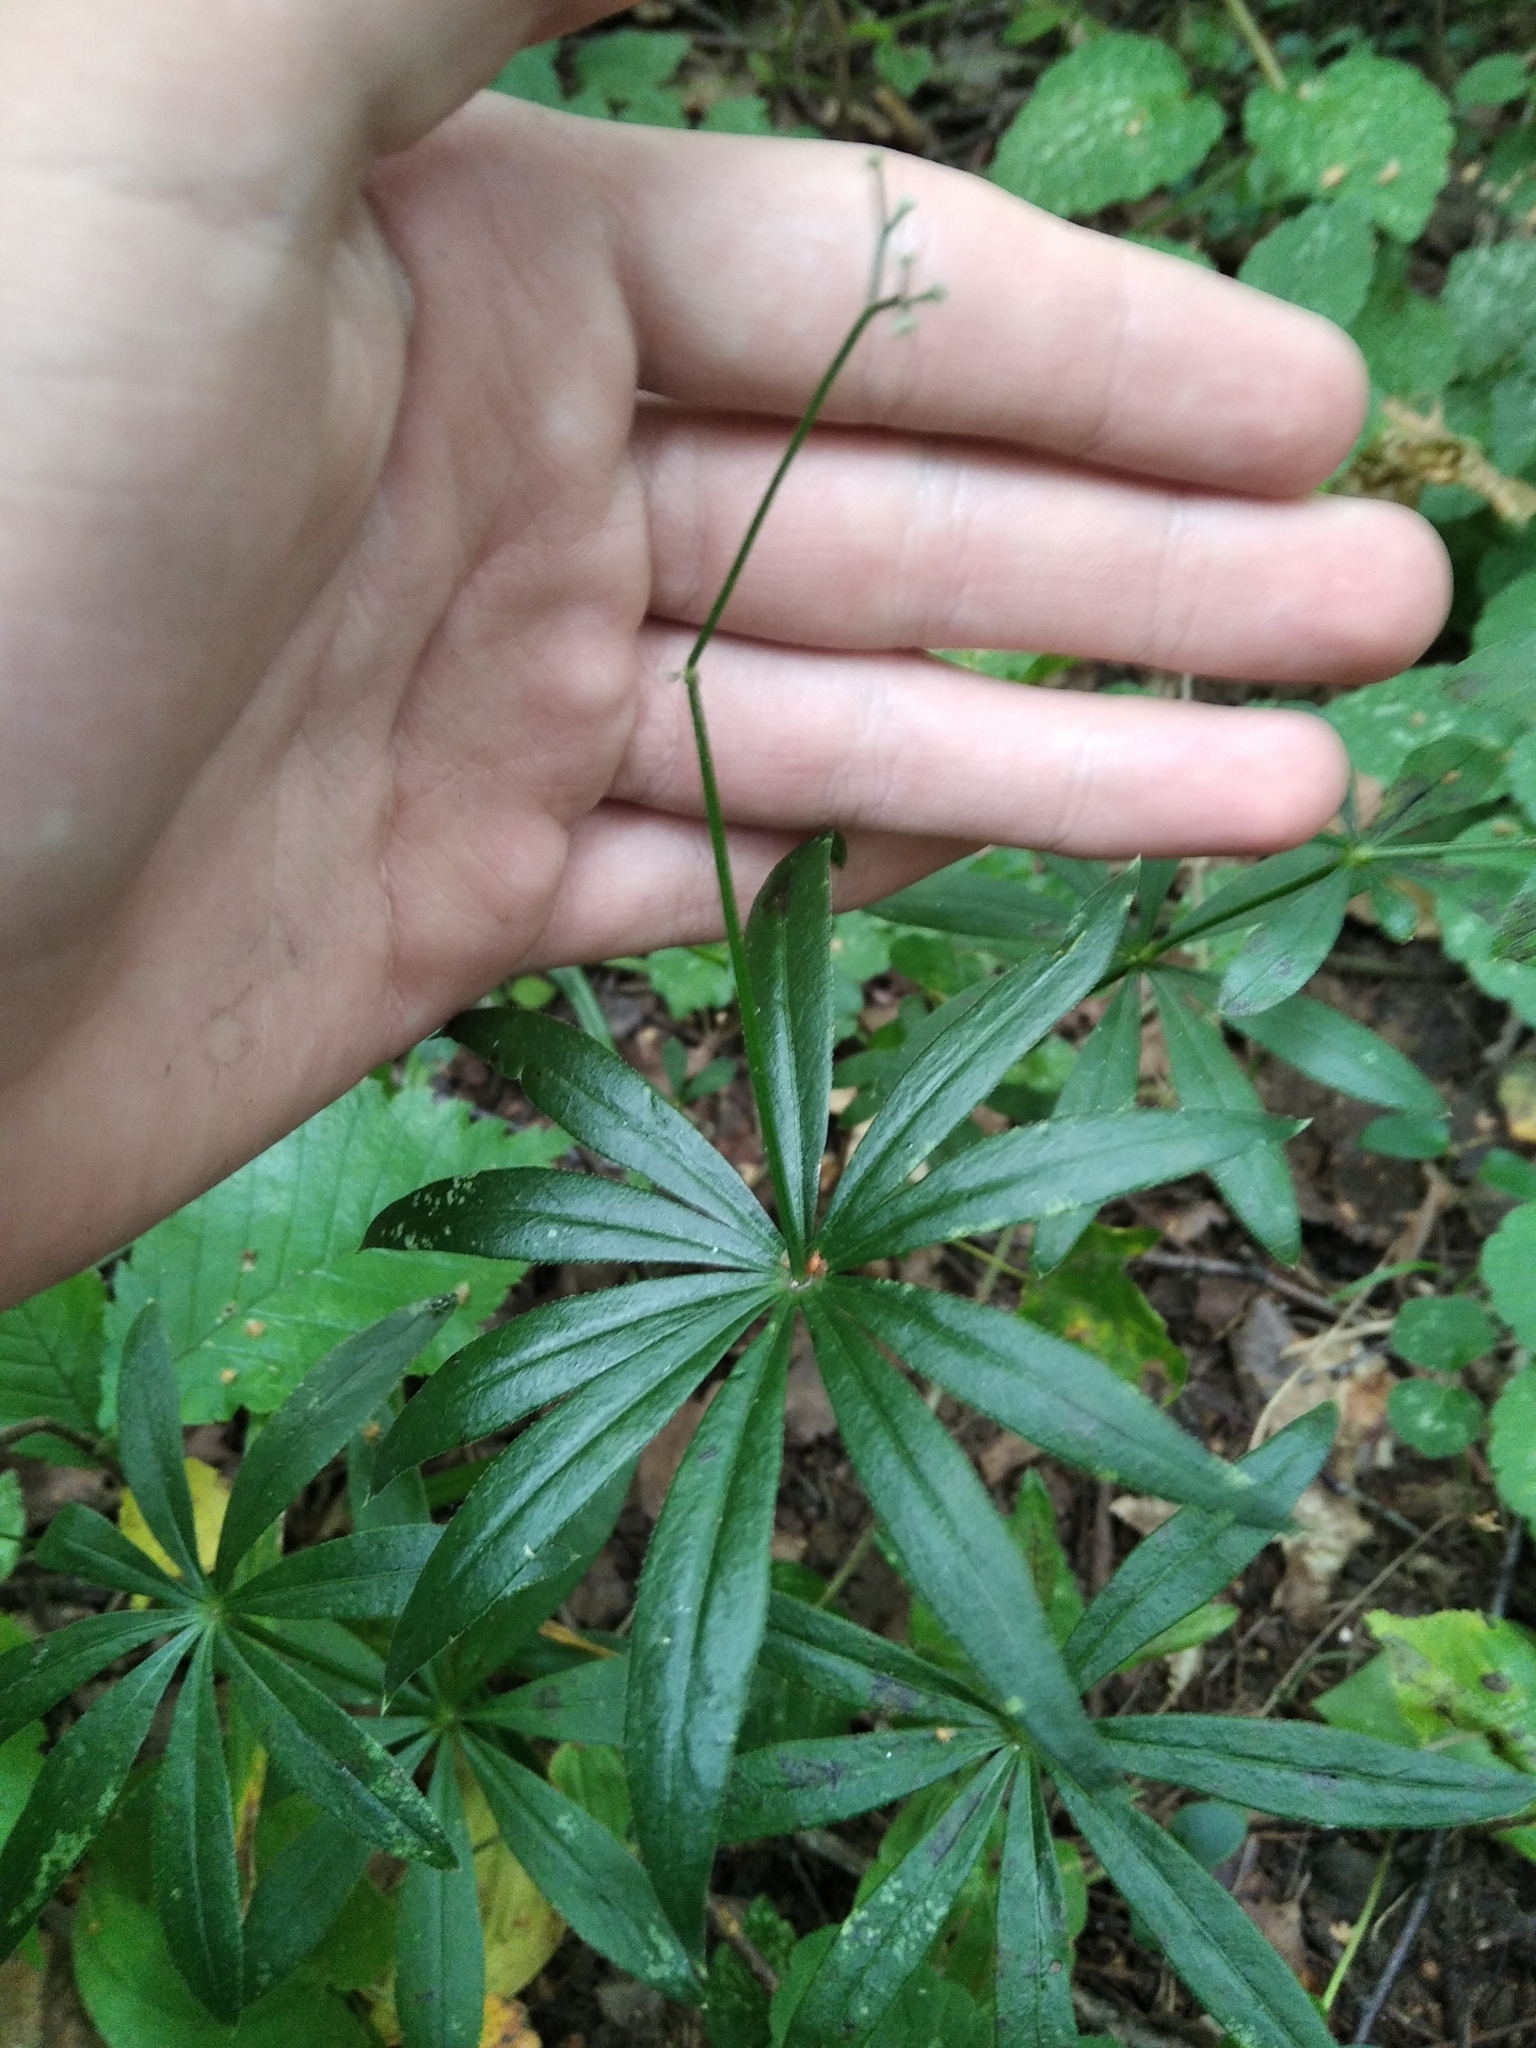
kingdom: Plantae
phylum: Tracheophyta
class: Magnoliopsida
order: Gentianales
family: Rubiaceae
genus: Galium
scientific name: Galium odoratum
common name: Sweet woodruff
